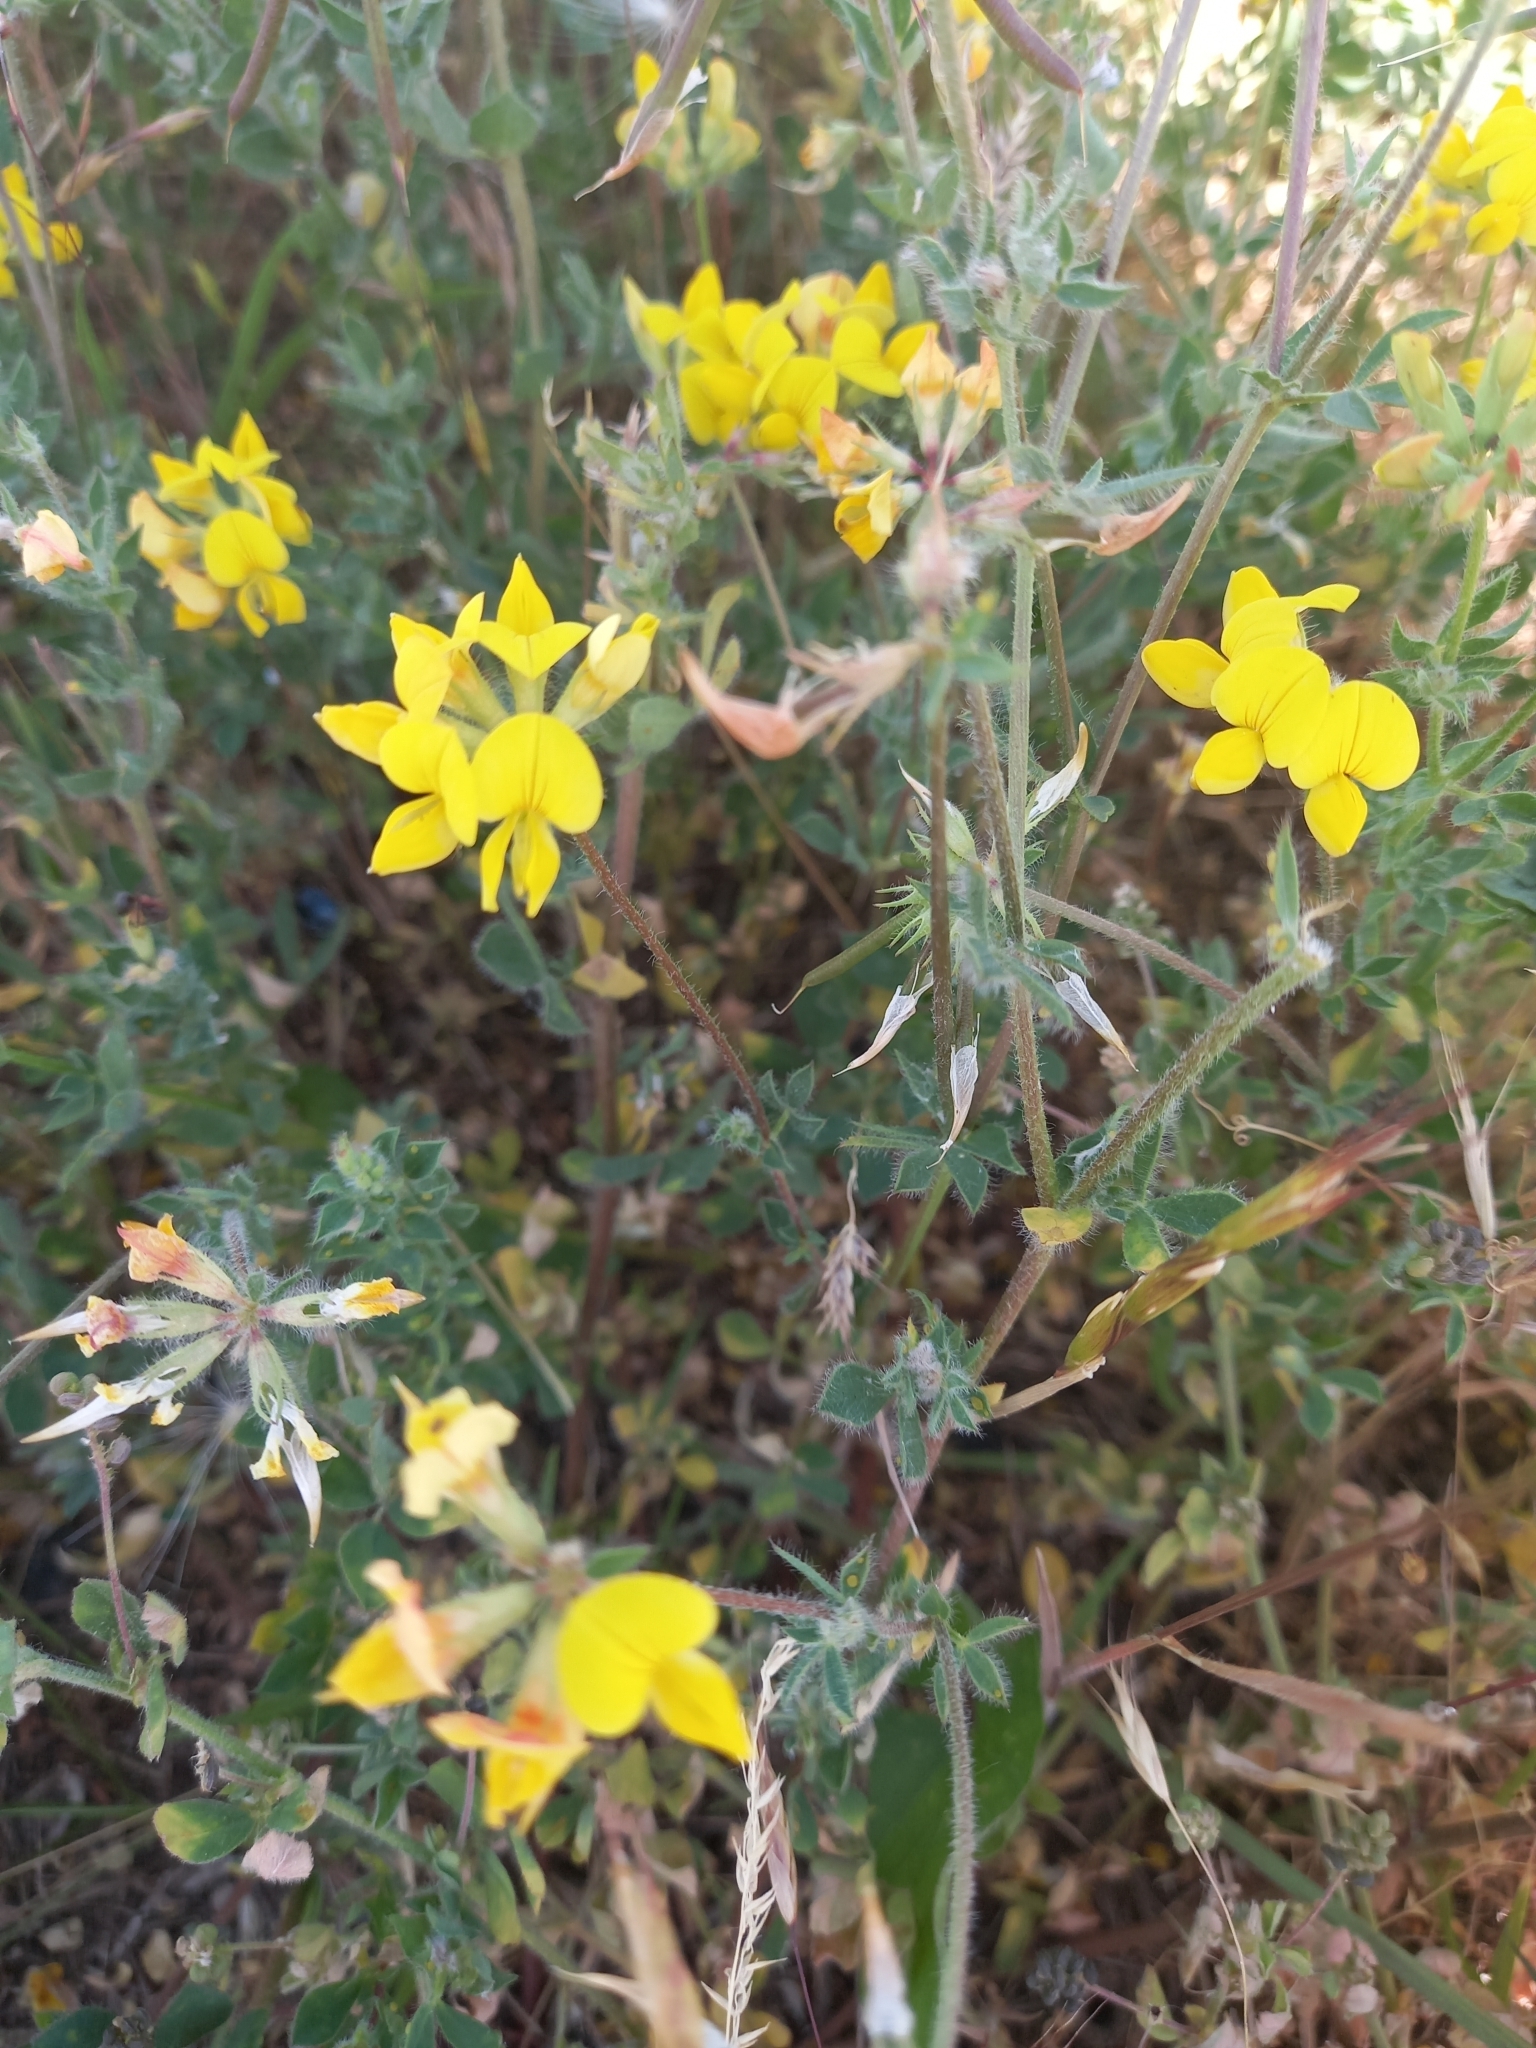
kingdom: Plantae
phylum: Tracheophyta
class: Magnoliopsida
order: Fabales
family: Fabaceae
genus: Lotus
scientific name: Lotus corniculatus
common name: Common bird's-foot-trefoil
